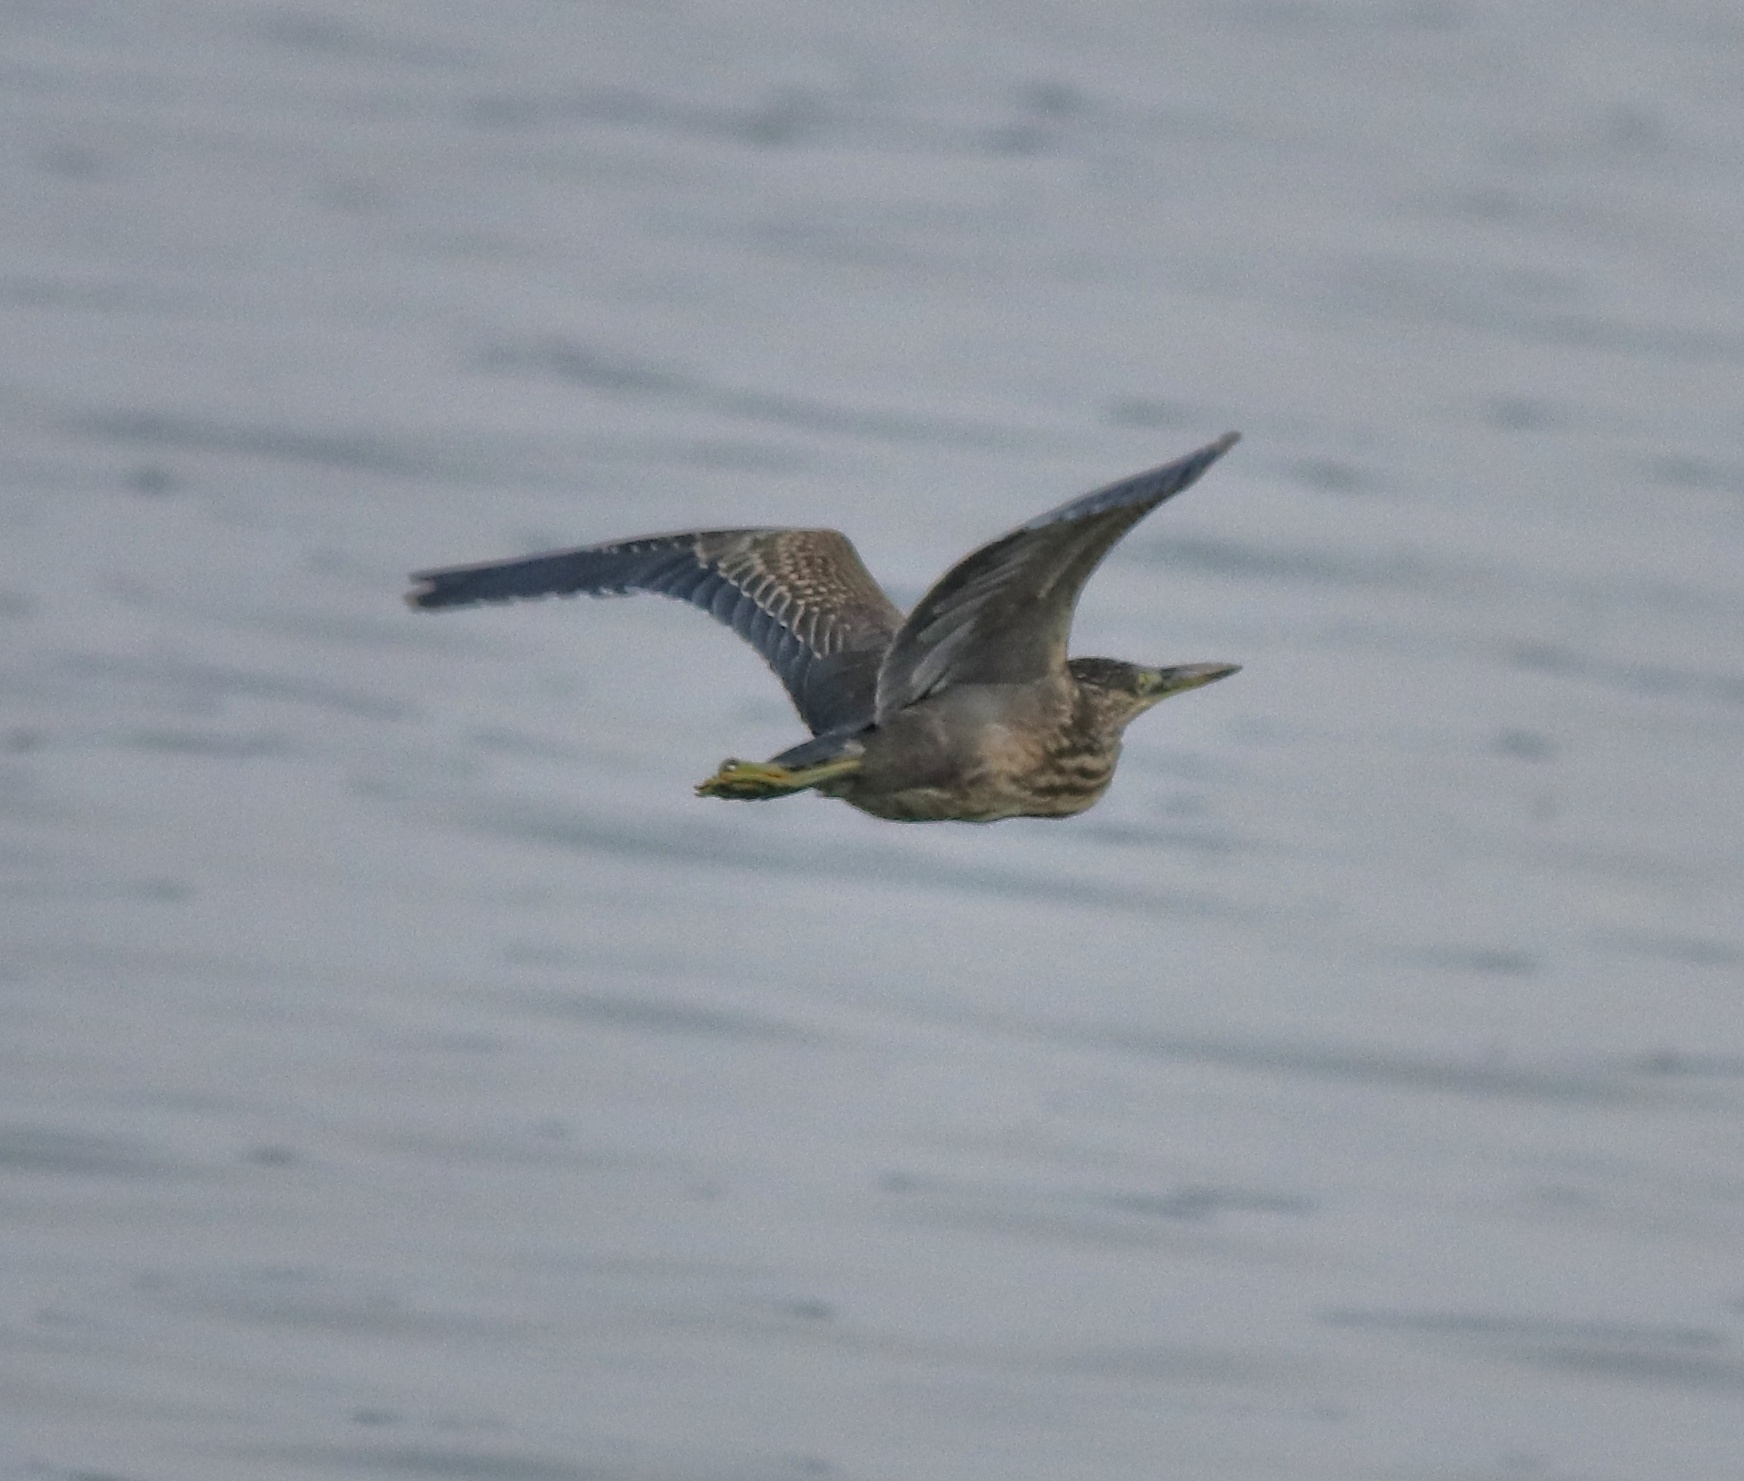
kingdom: Animalia
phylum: Chordata
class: Aves
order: Pelecaniformes
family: Ardeidae
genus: Butorides
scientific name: Butorides striata
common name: Striated heron
